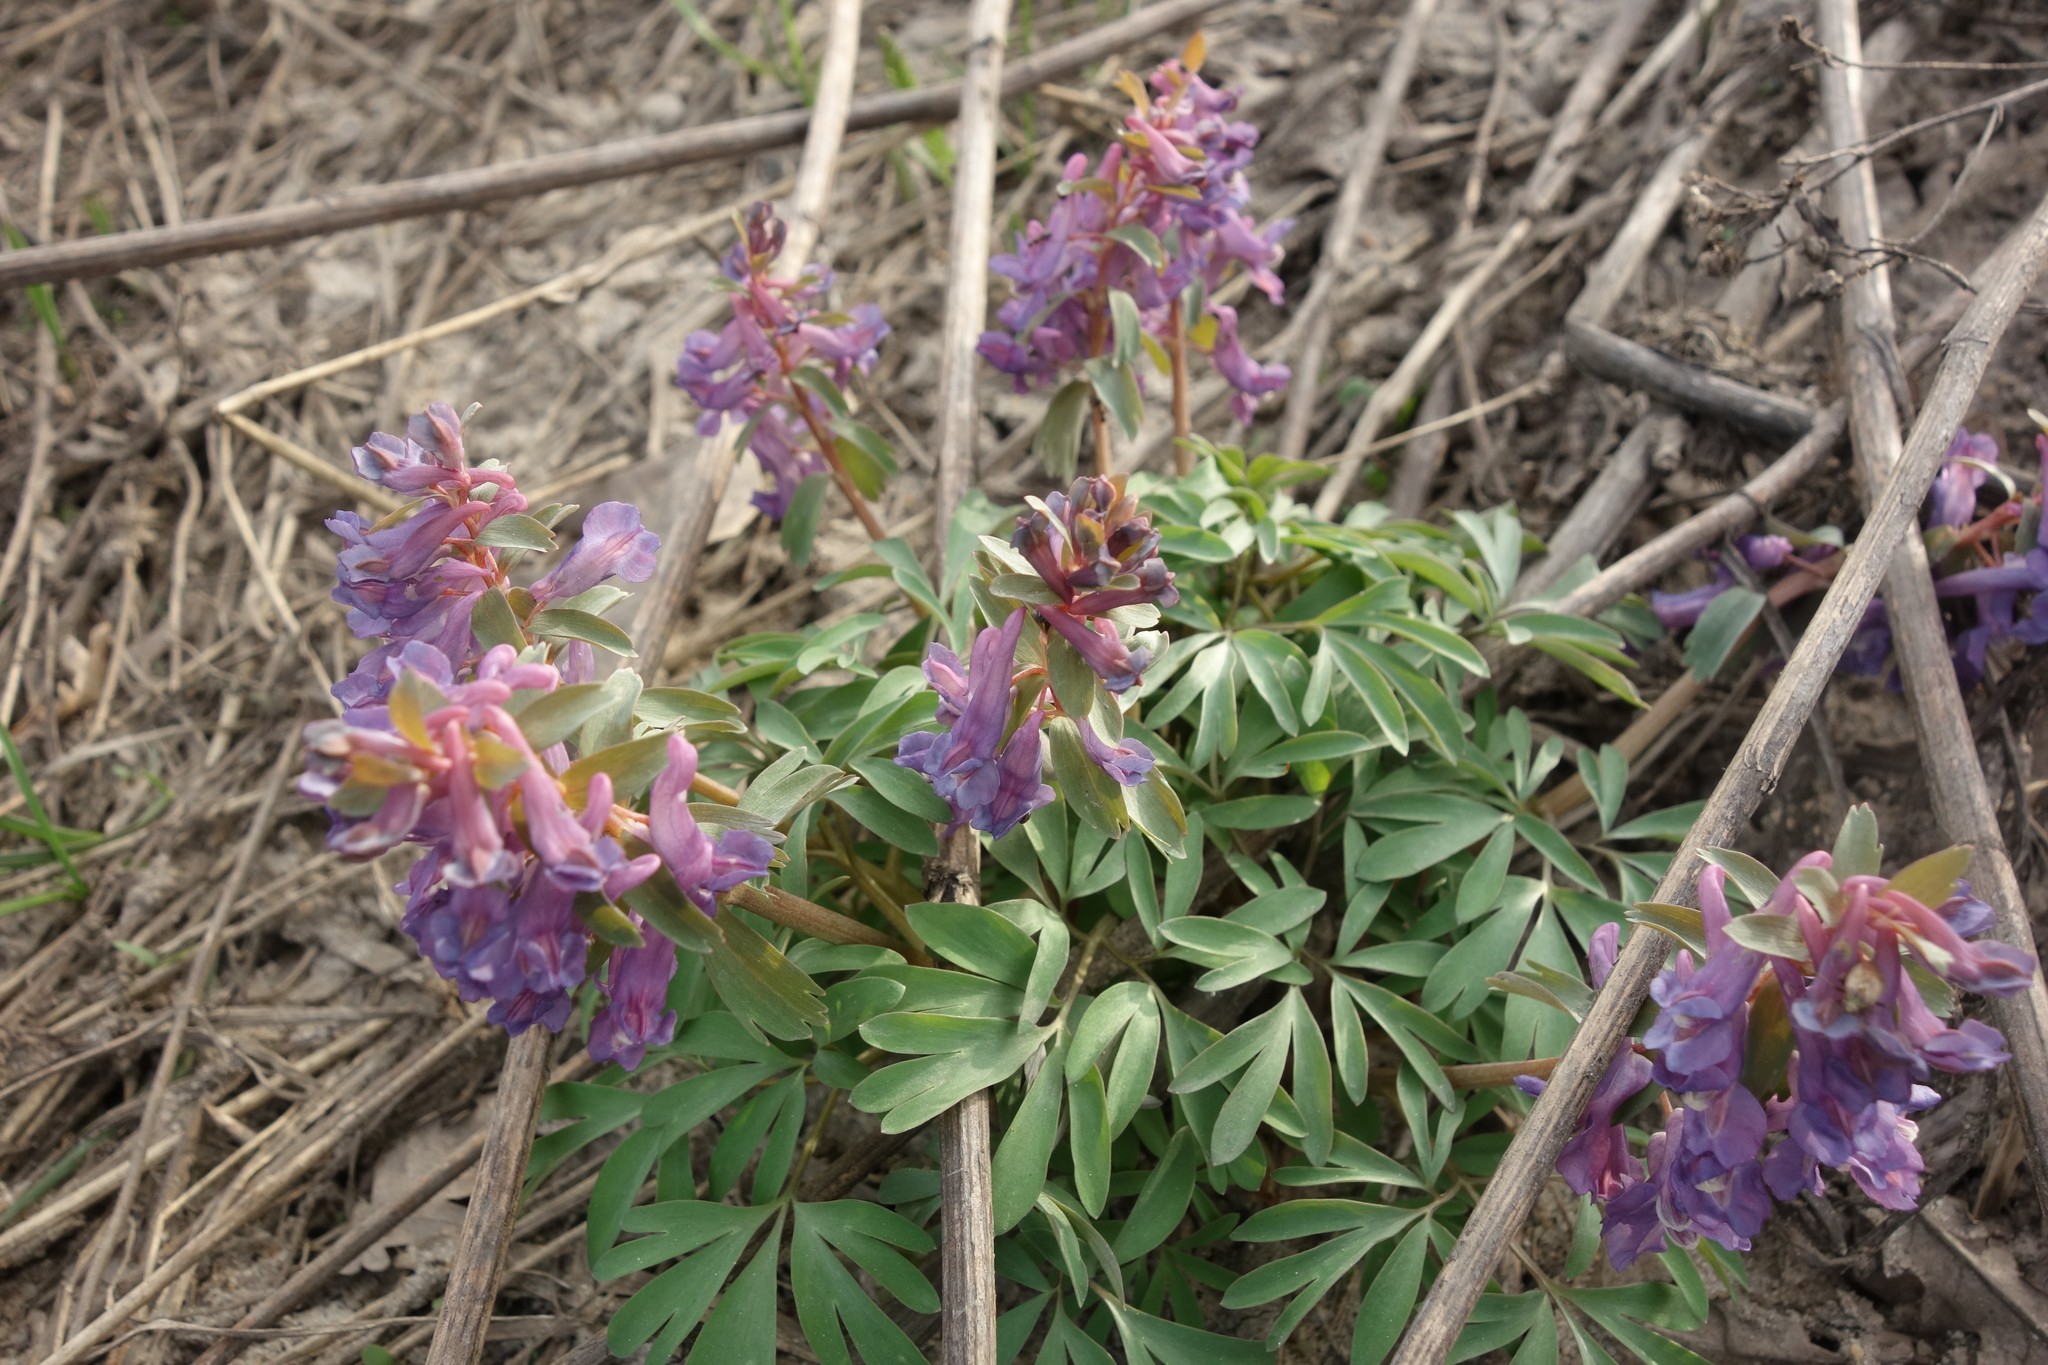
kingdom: Plantae
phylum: Tracheophyta
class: Magnoliopsida
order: Ranunculales
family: Papaveraceae
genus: Corydalis
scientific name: Corydalis solida
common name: Bird-in-a-bush
